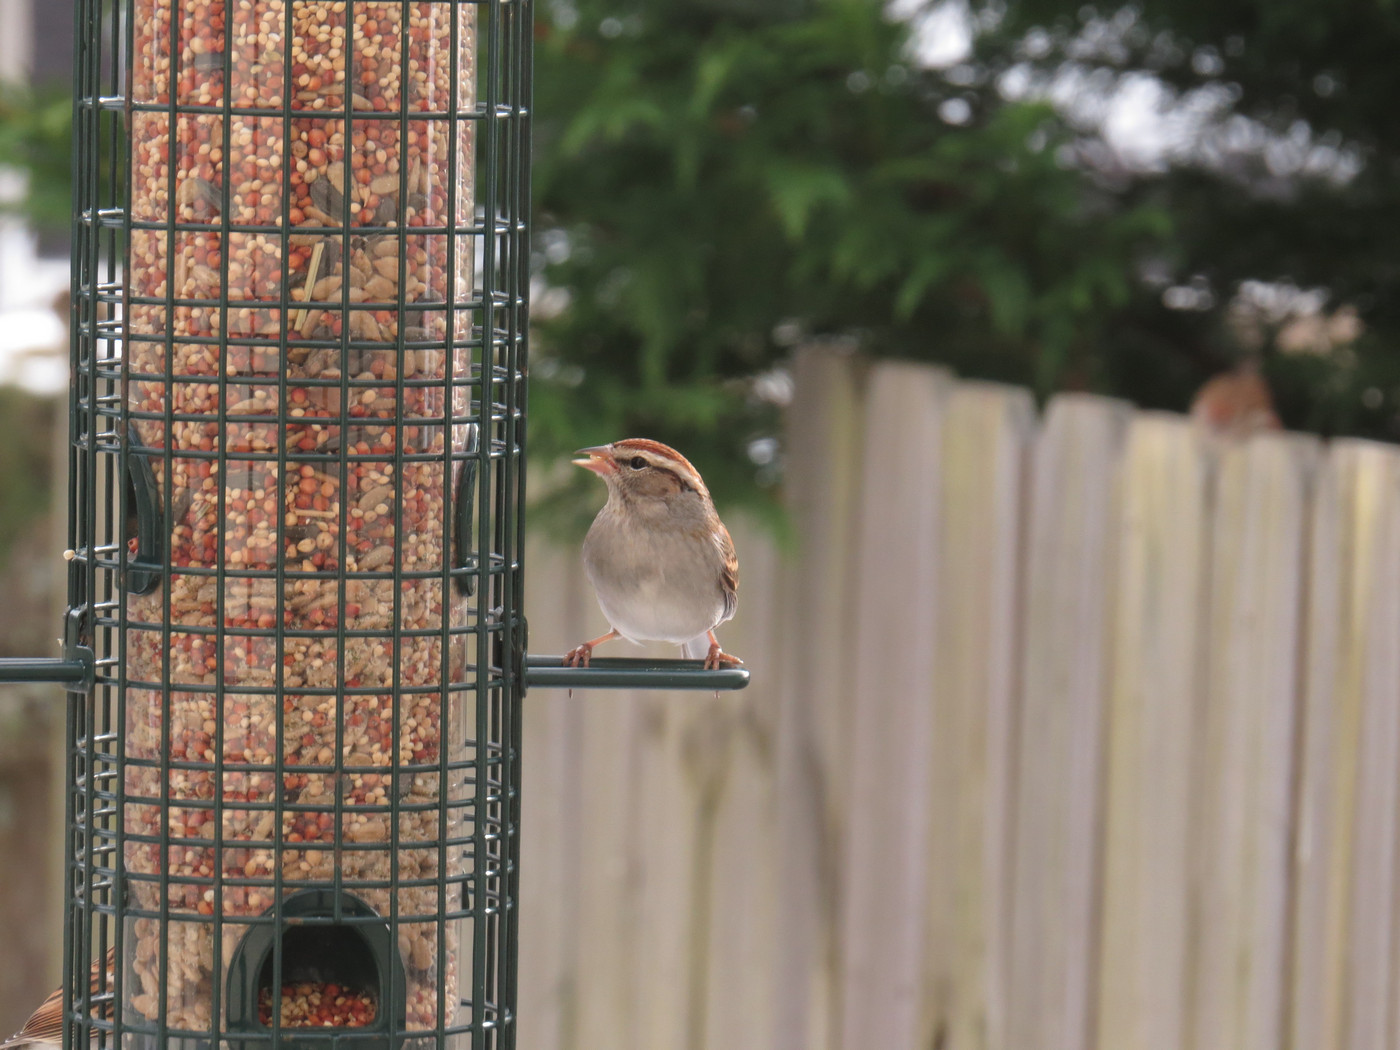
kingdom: Animalia
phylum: Chordata
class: Aves
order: Passeriformes
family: Passerellidae
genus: Spizella
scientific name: Spizella passerina
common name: Chipping sparrow
